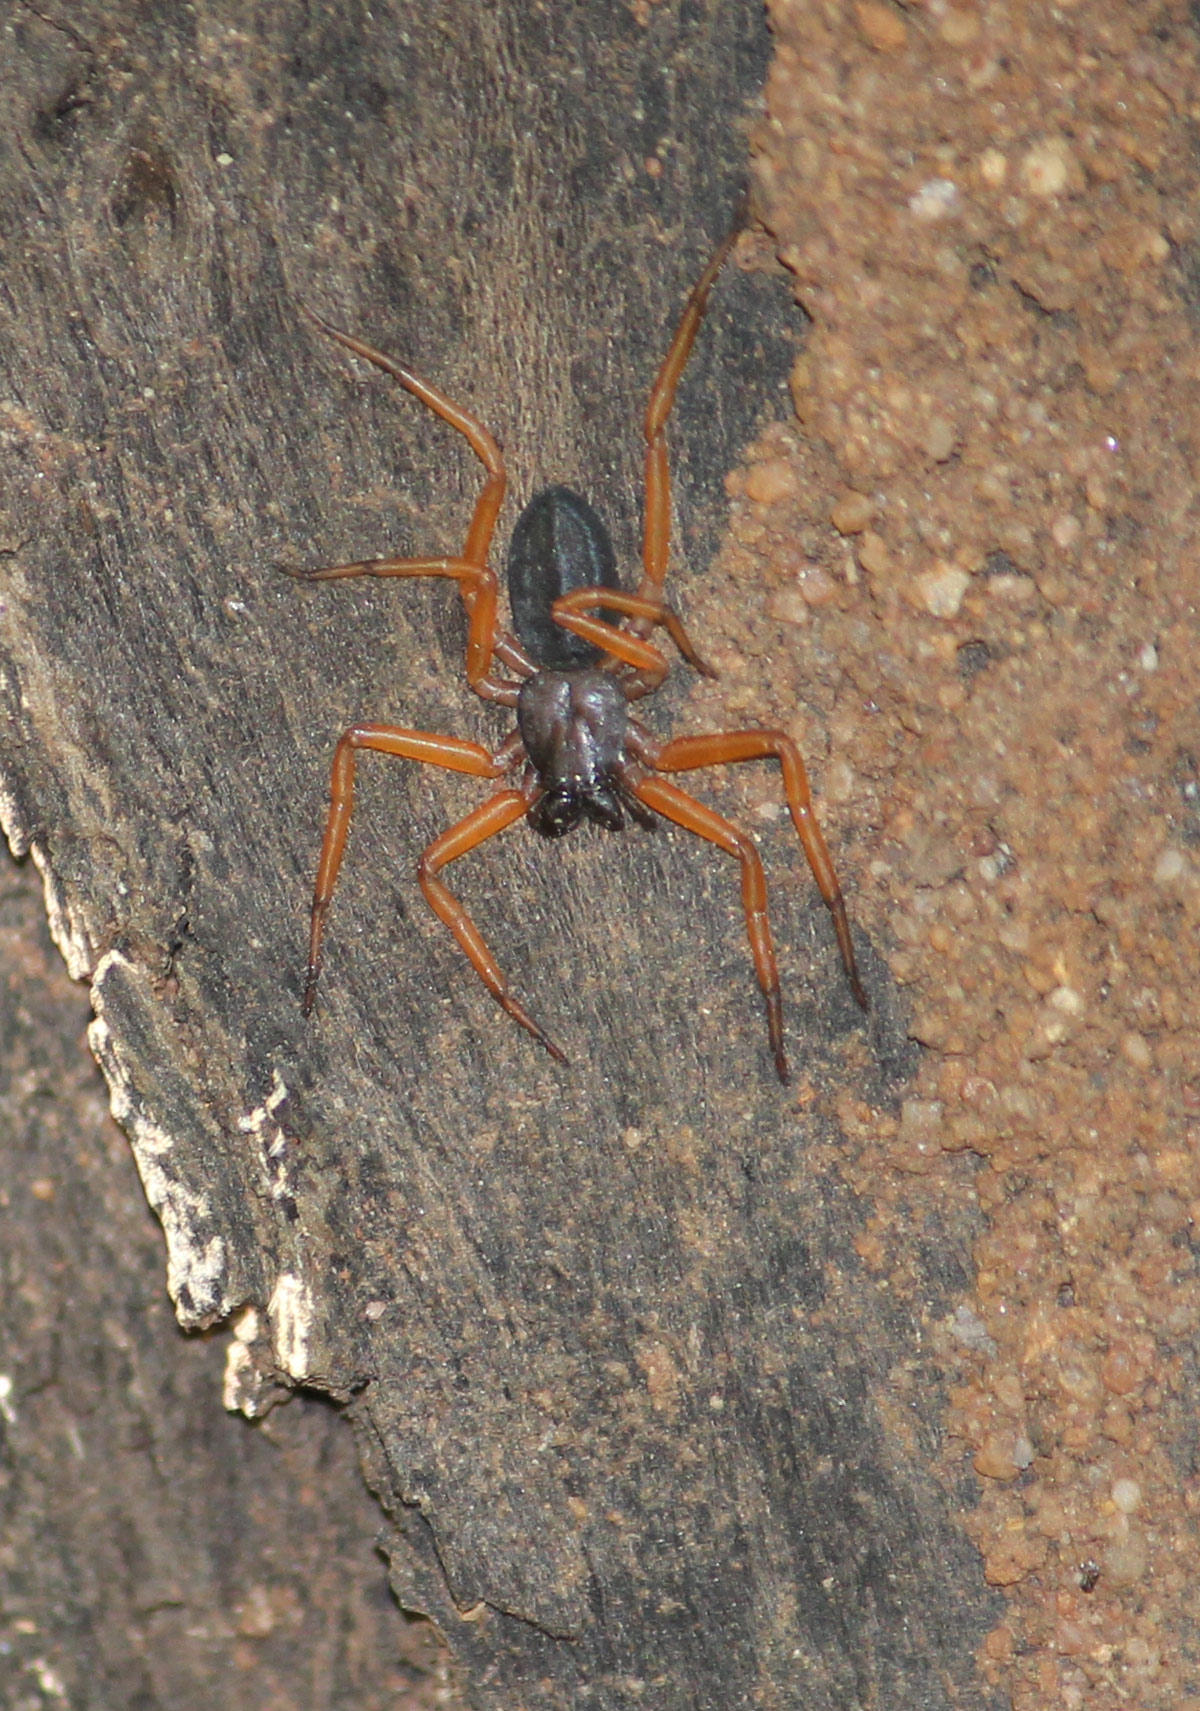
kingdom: Animalia
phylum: Arthropoda
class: Arachnida
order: Araneae
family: Trochanteriidae
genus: Platyoides
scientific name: Platyoides walteri
